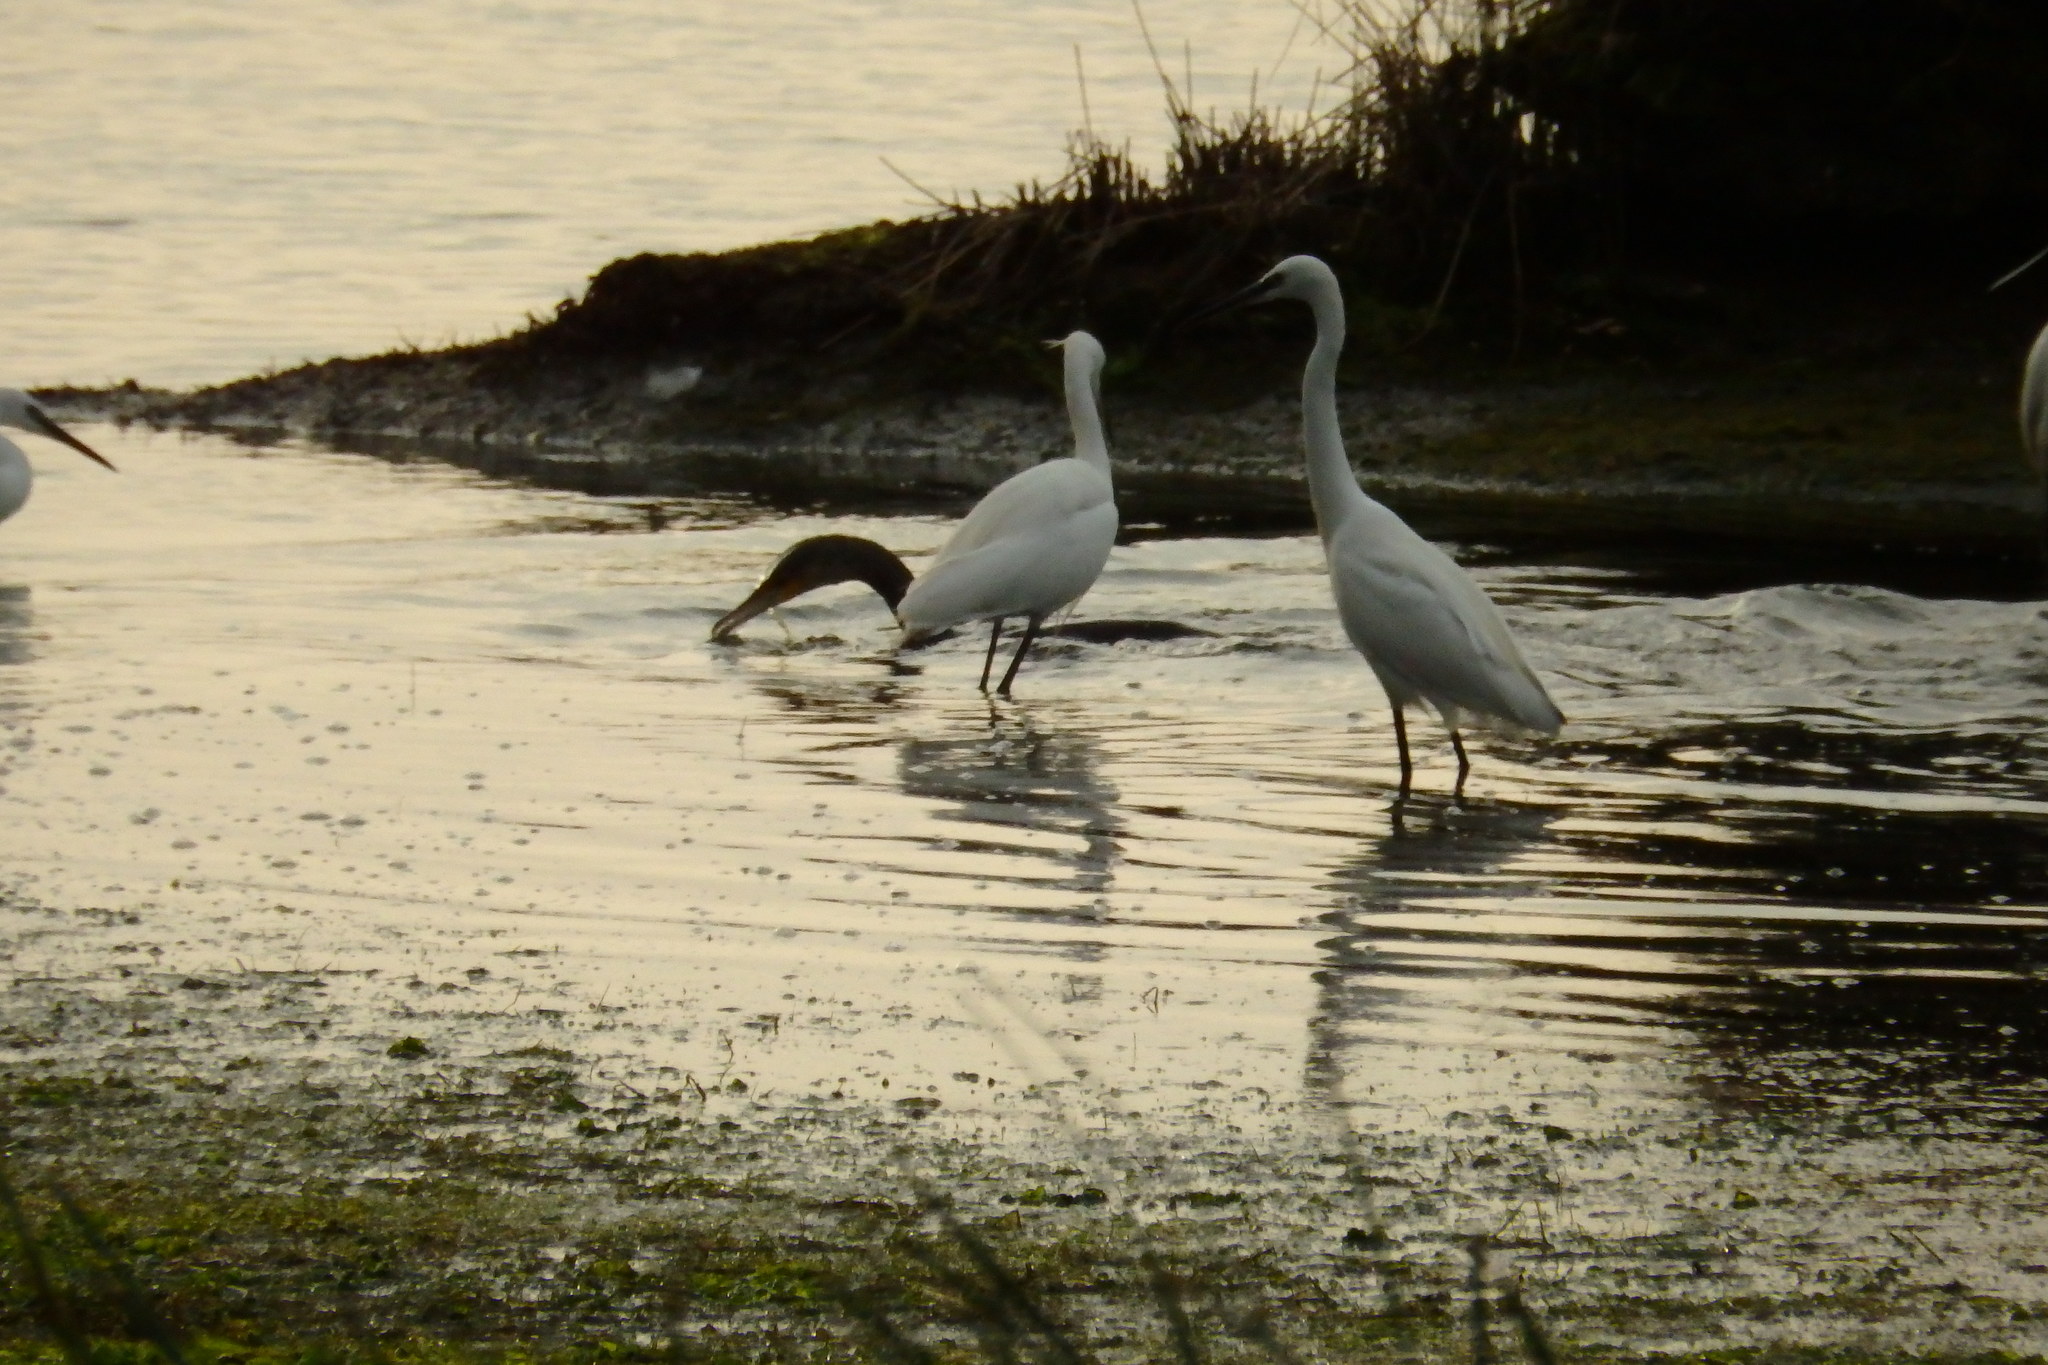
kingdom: Animalia
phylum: Chordata
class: Aves
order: Suliformes
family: Phalacrocoracidae
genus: Phalacrocorax
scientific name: Phalacrocorax carbo
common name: Great cormorant
